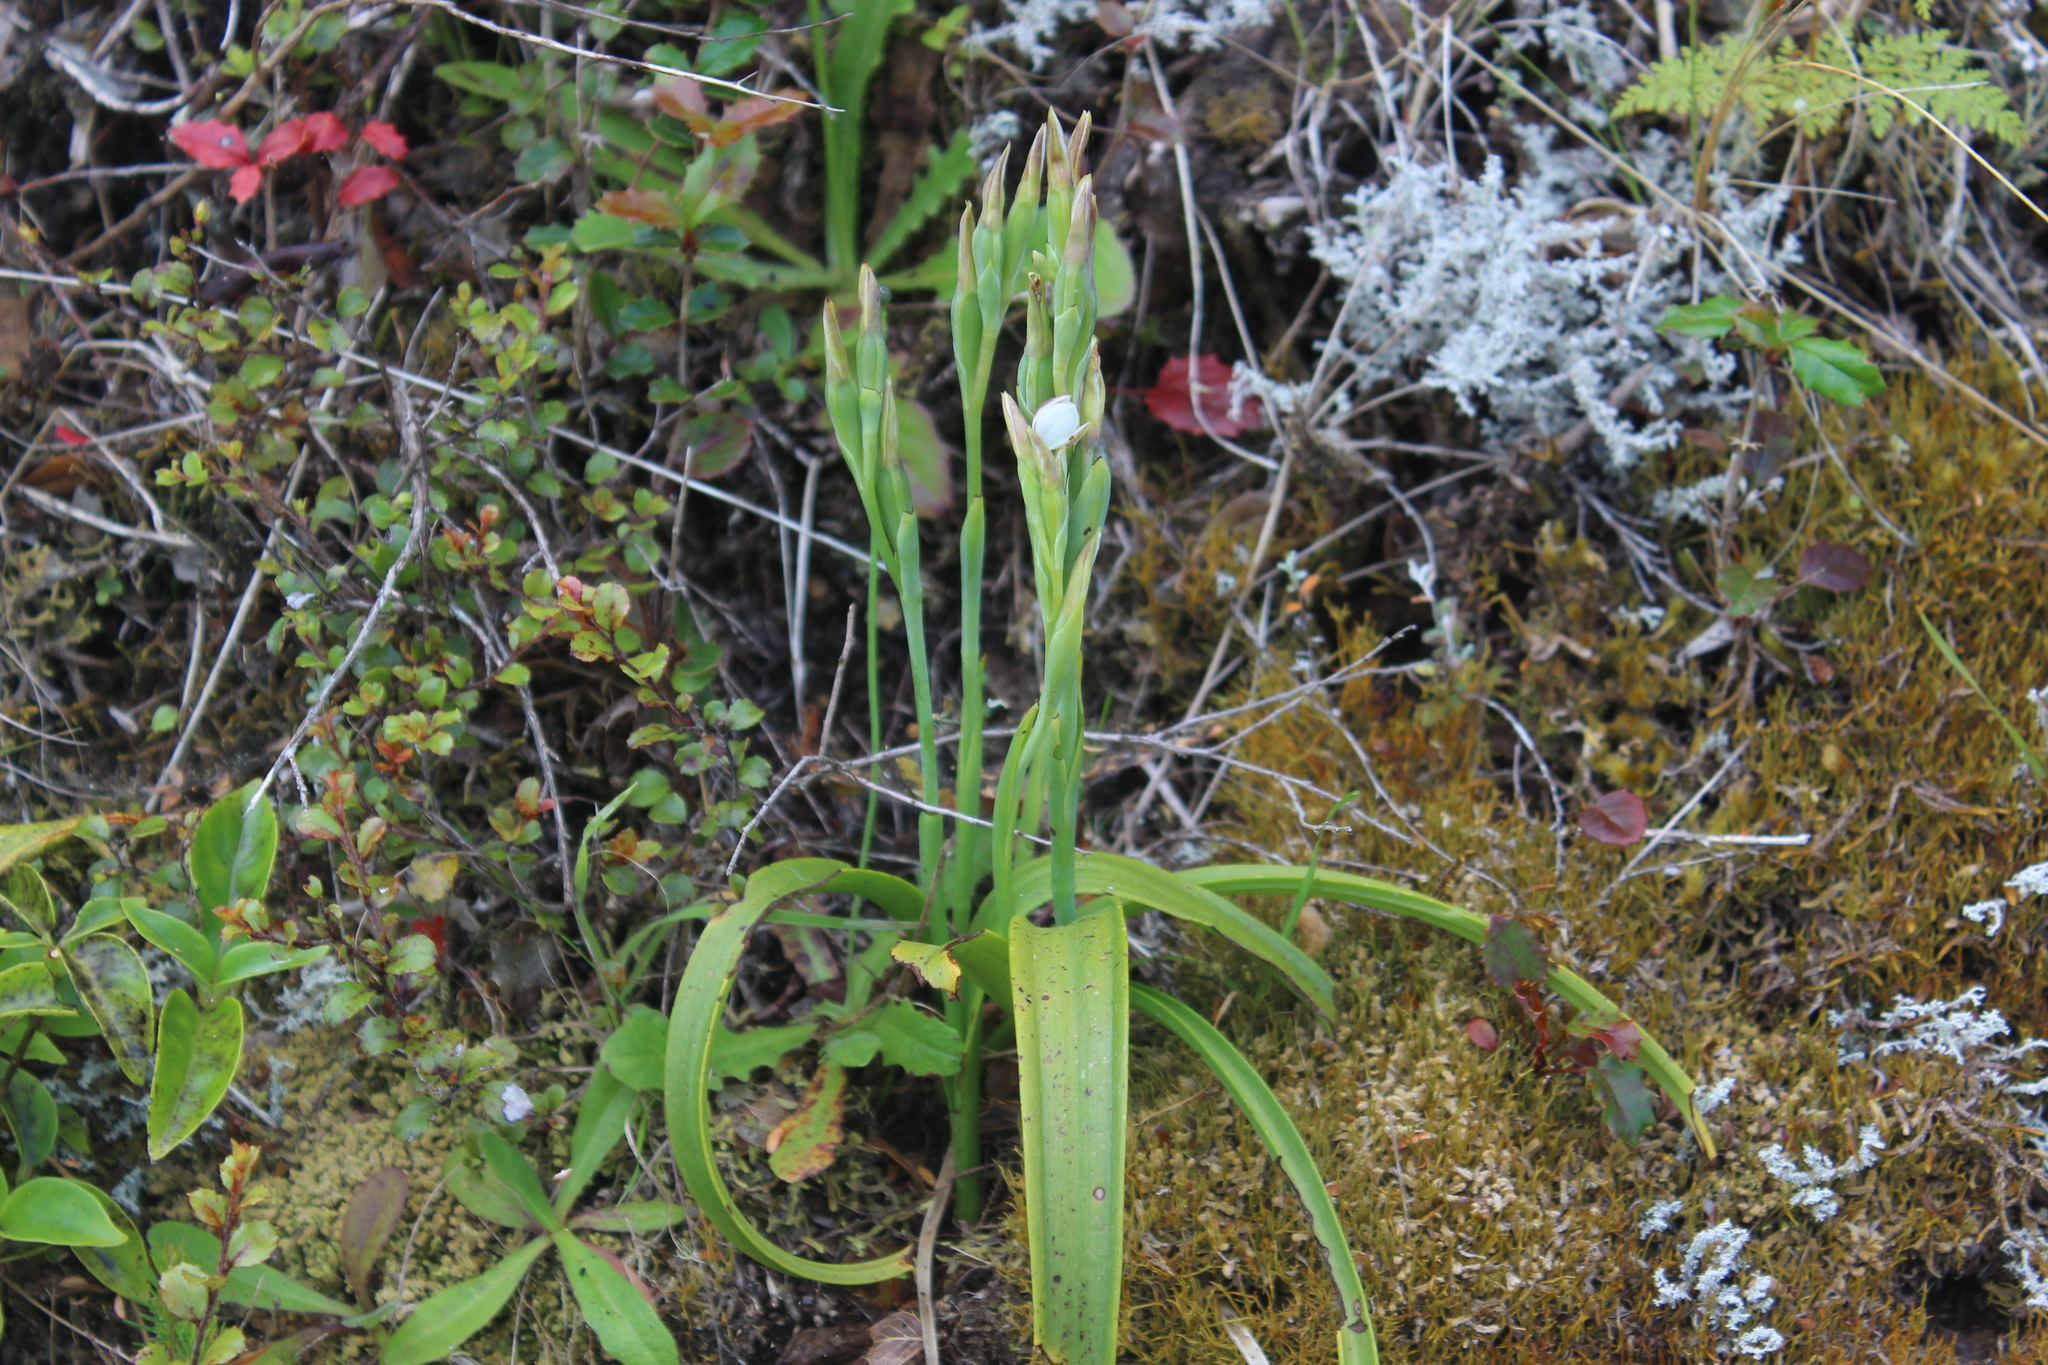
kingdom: Plantae
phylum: Tracheophyta
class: Liliopsida
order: Asparagales
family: Orchidaceae
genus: Thelymitra
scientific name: Thelymitra longifolia
